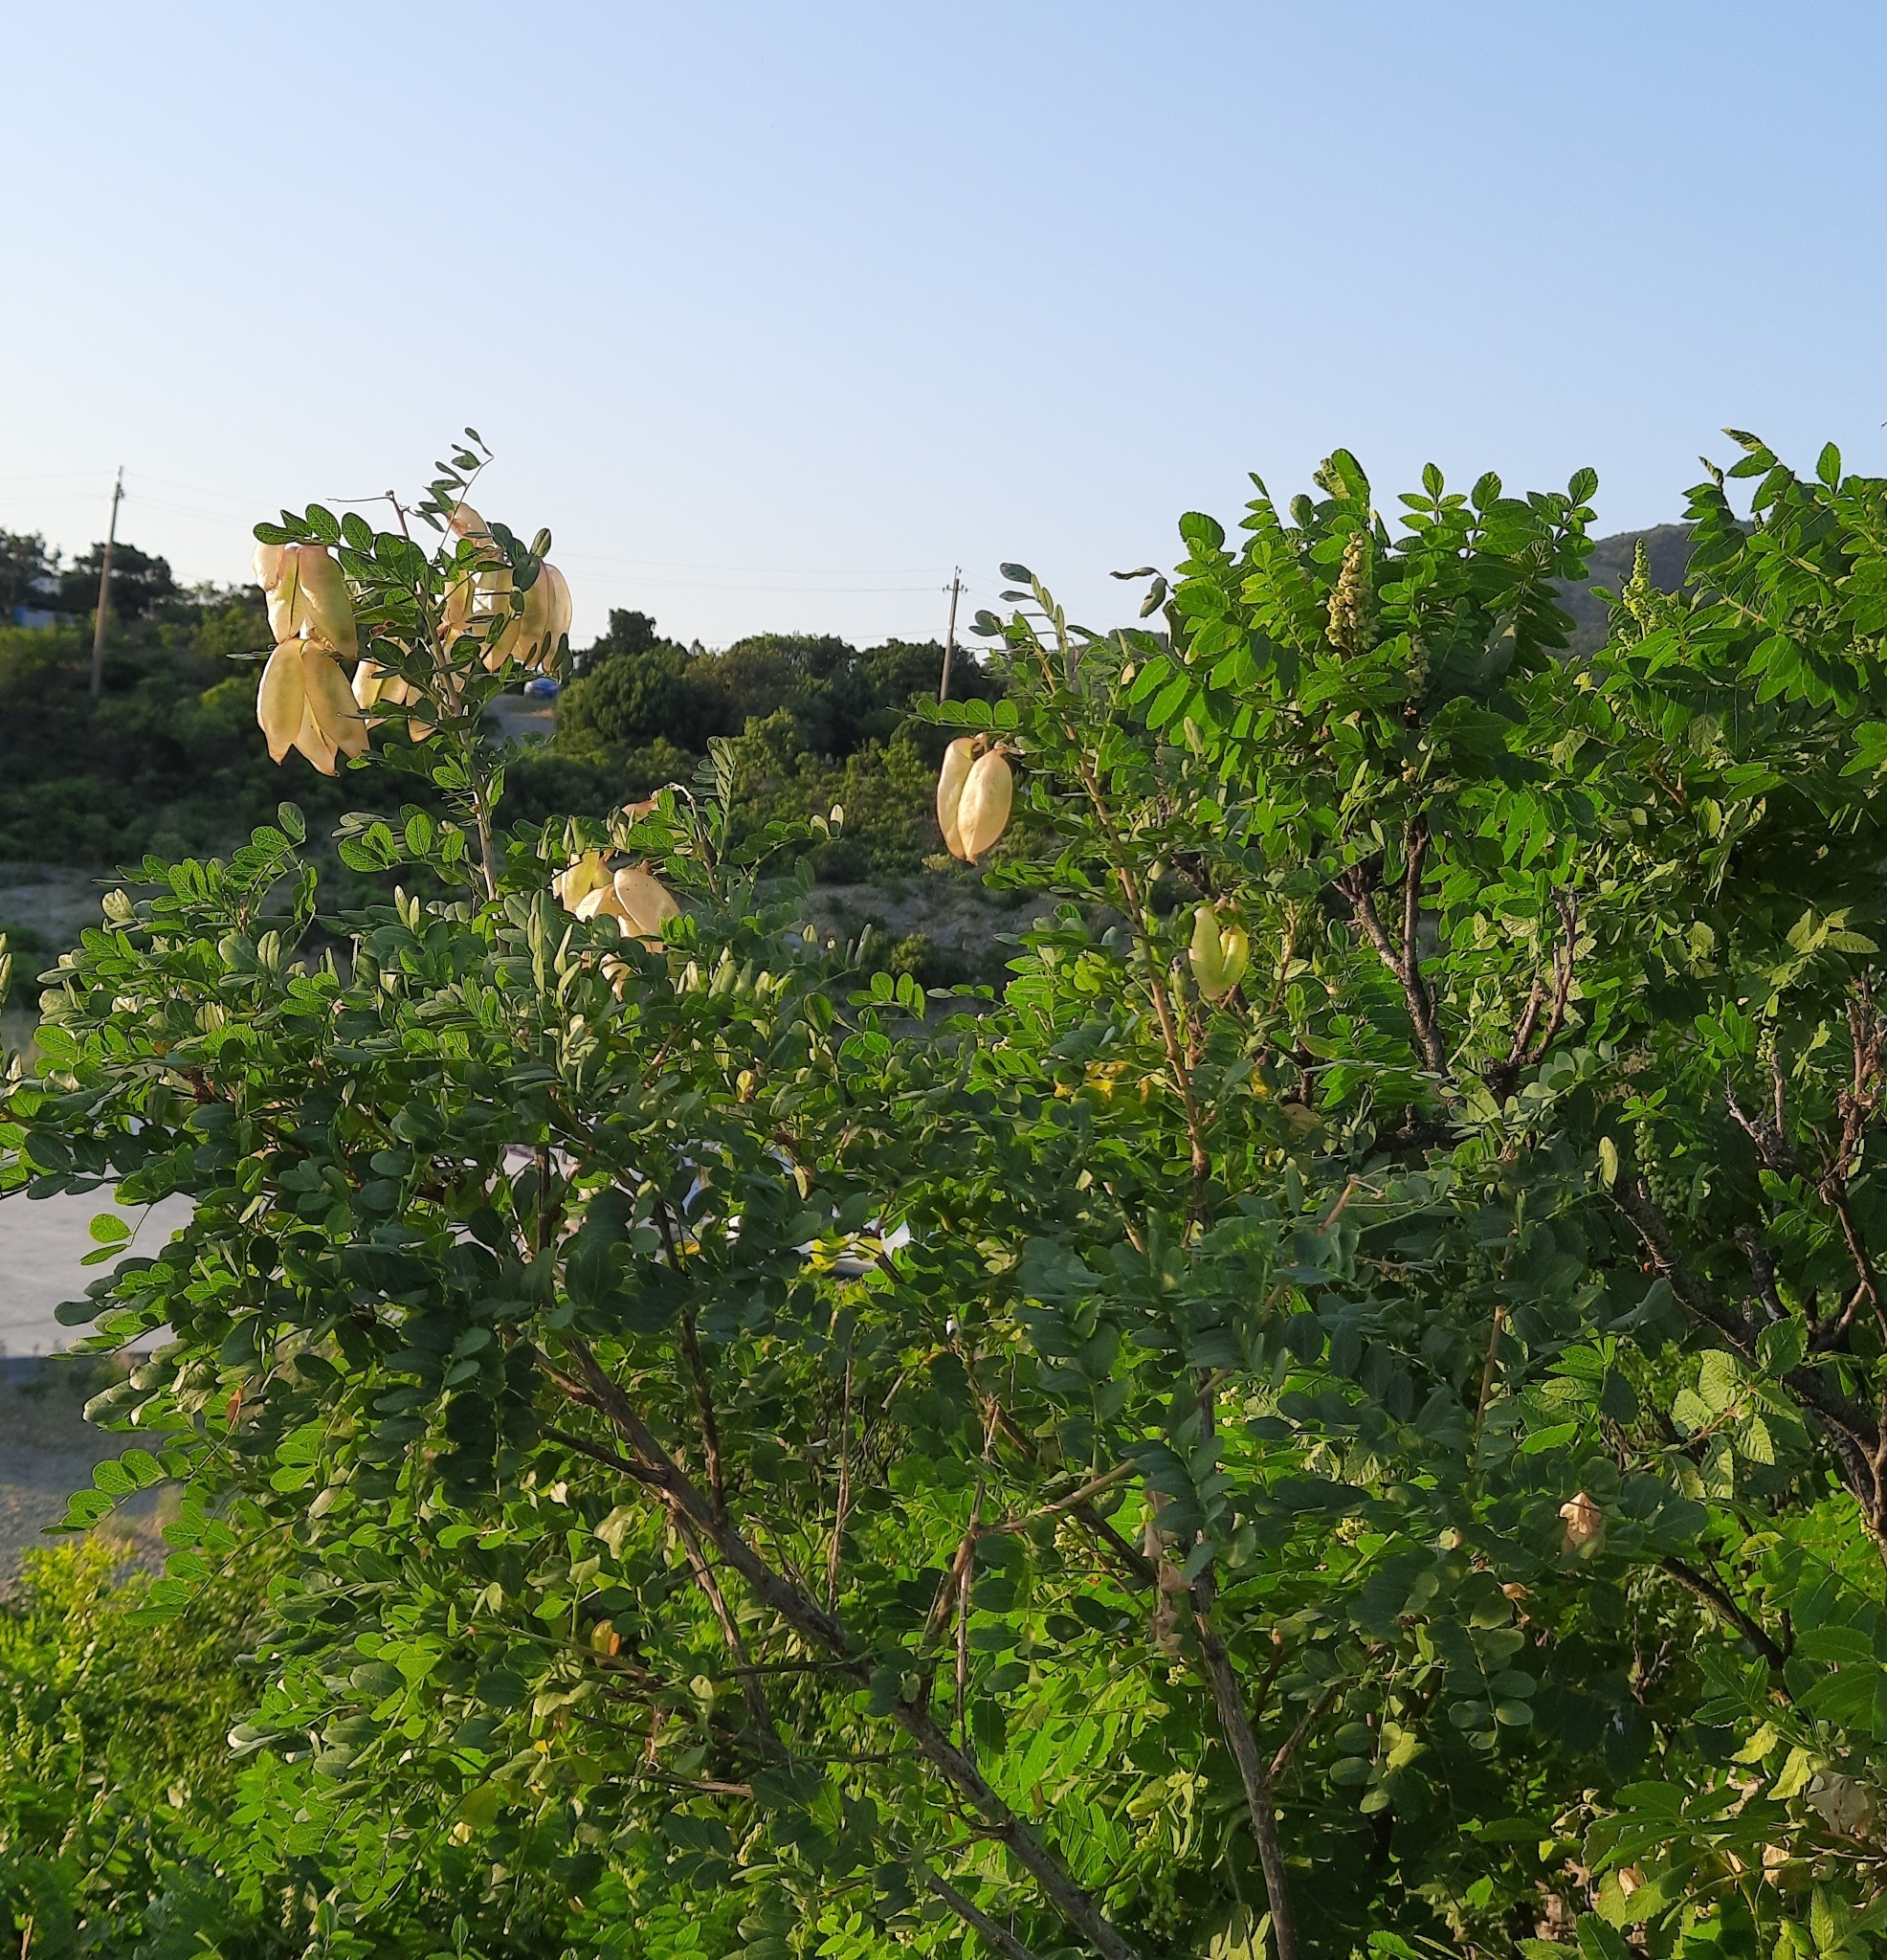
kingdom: Plantae
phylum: Tracheophyta
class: Magnoliopsida
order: Fabales
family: Fabaceae
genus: Colutea
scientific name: Colutea cilicica
